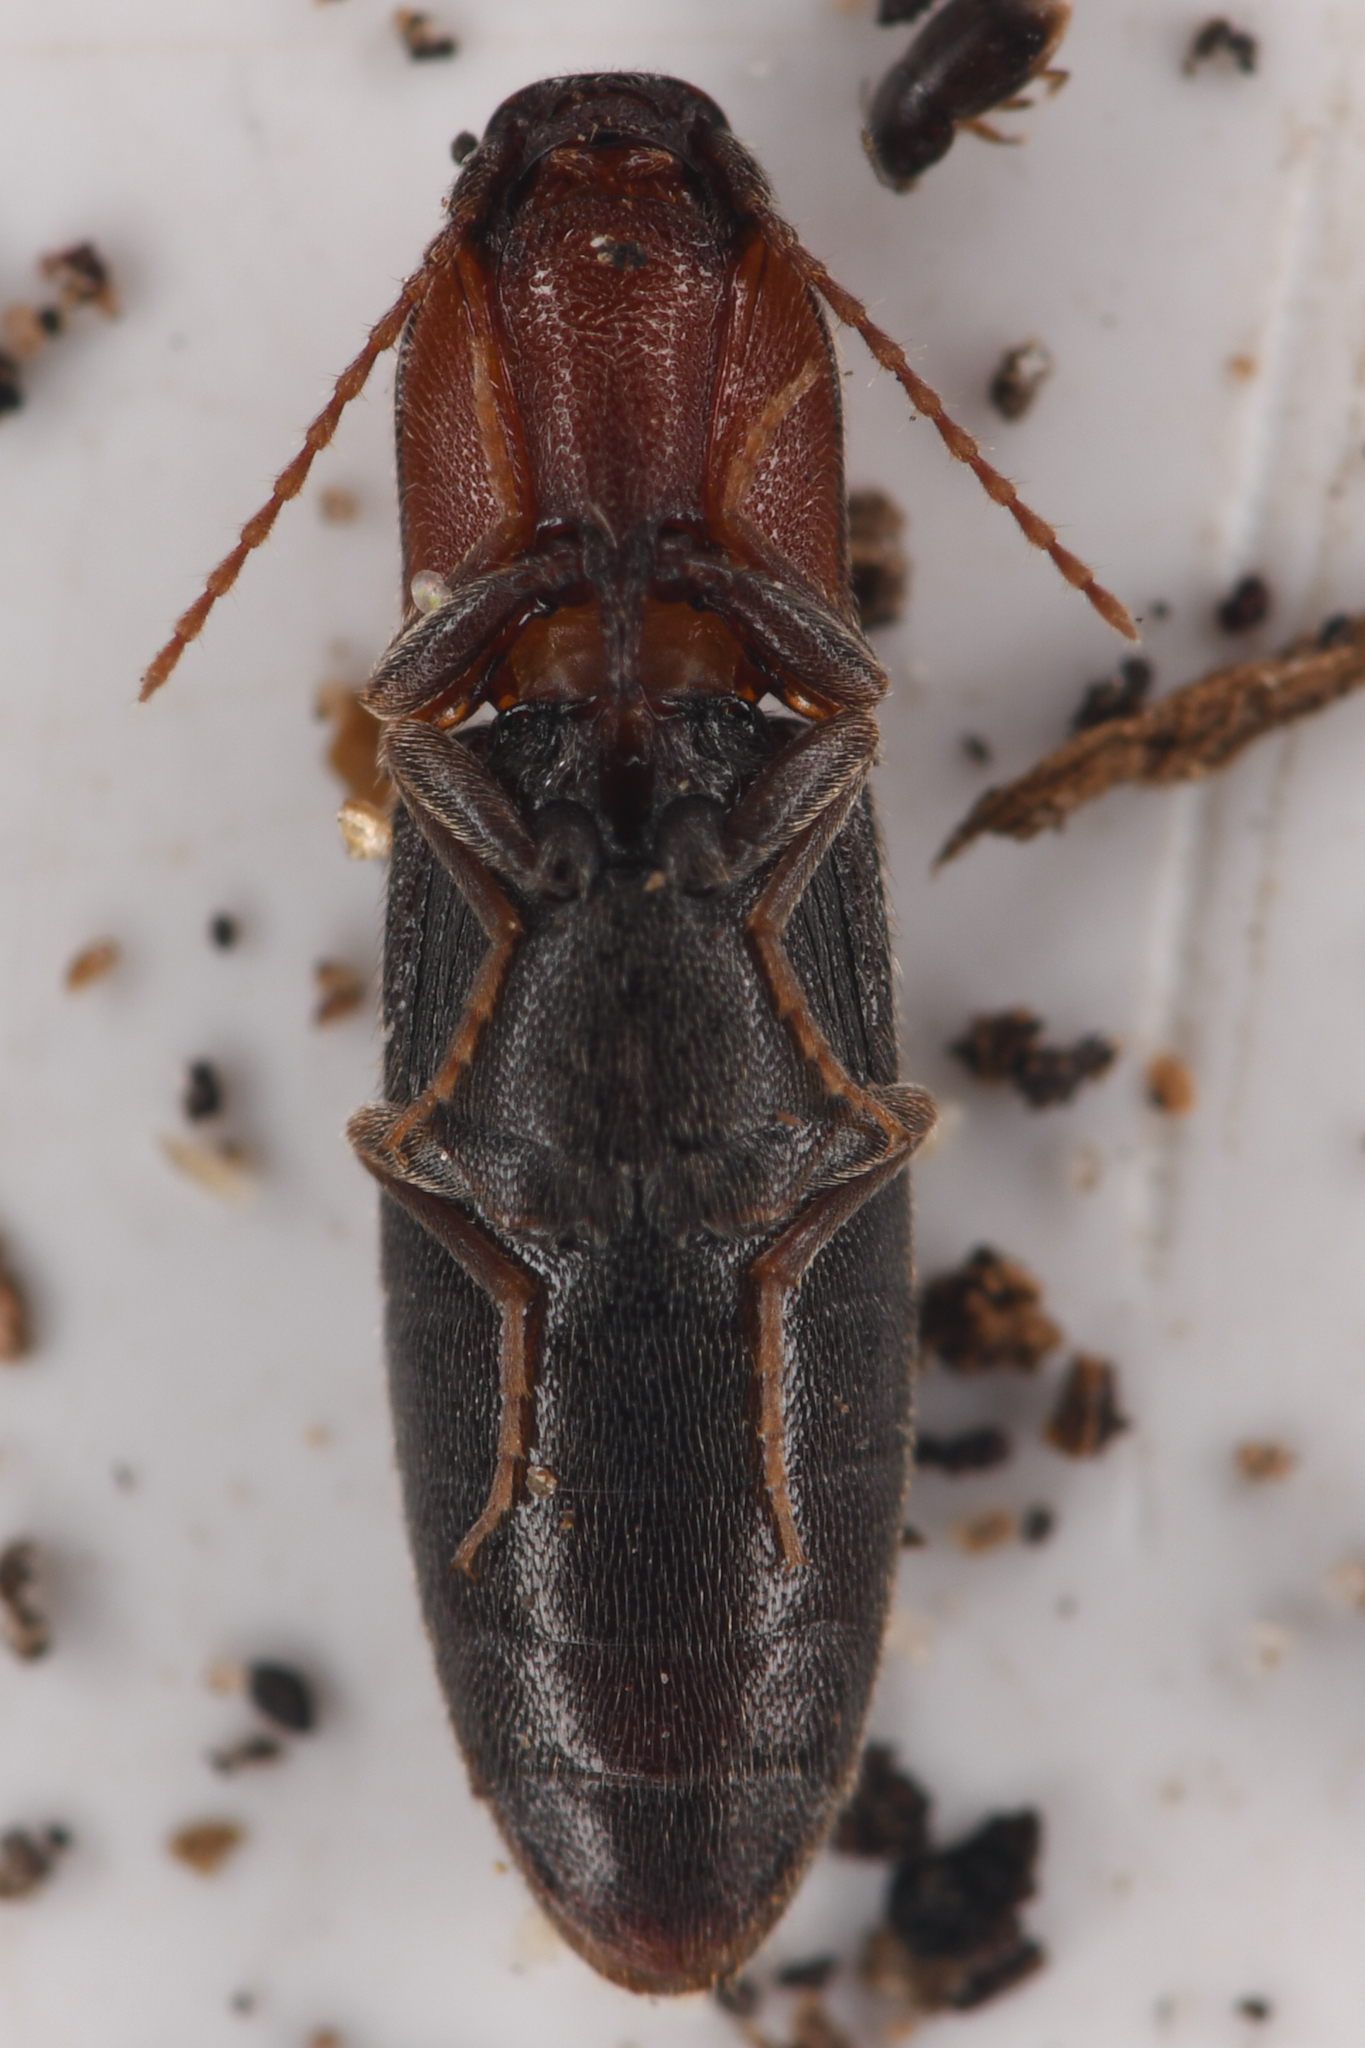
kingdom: Animalia
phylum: Arthropoda
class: Insecta
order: Coleoptera
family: Elateridae
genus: Agriotes
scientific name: Agriotes
